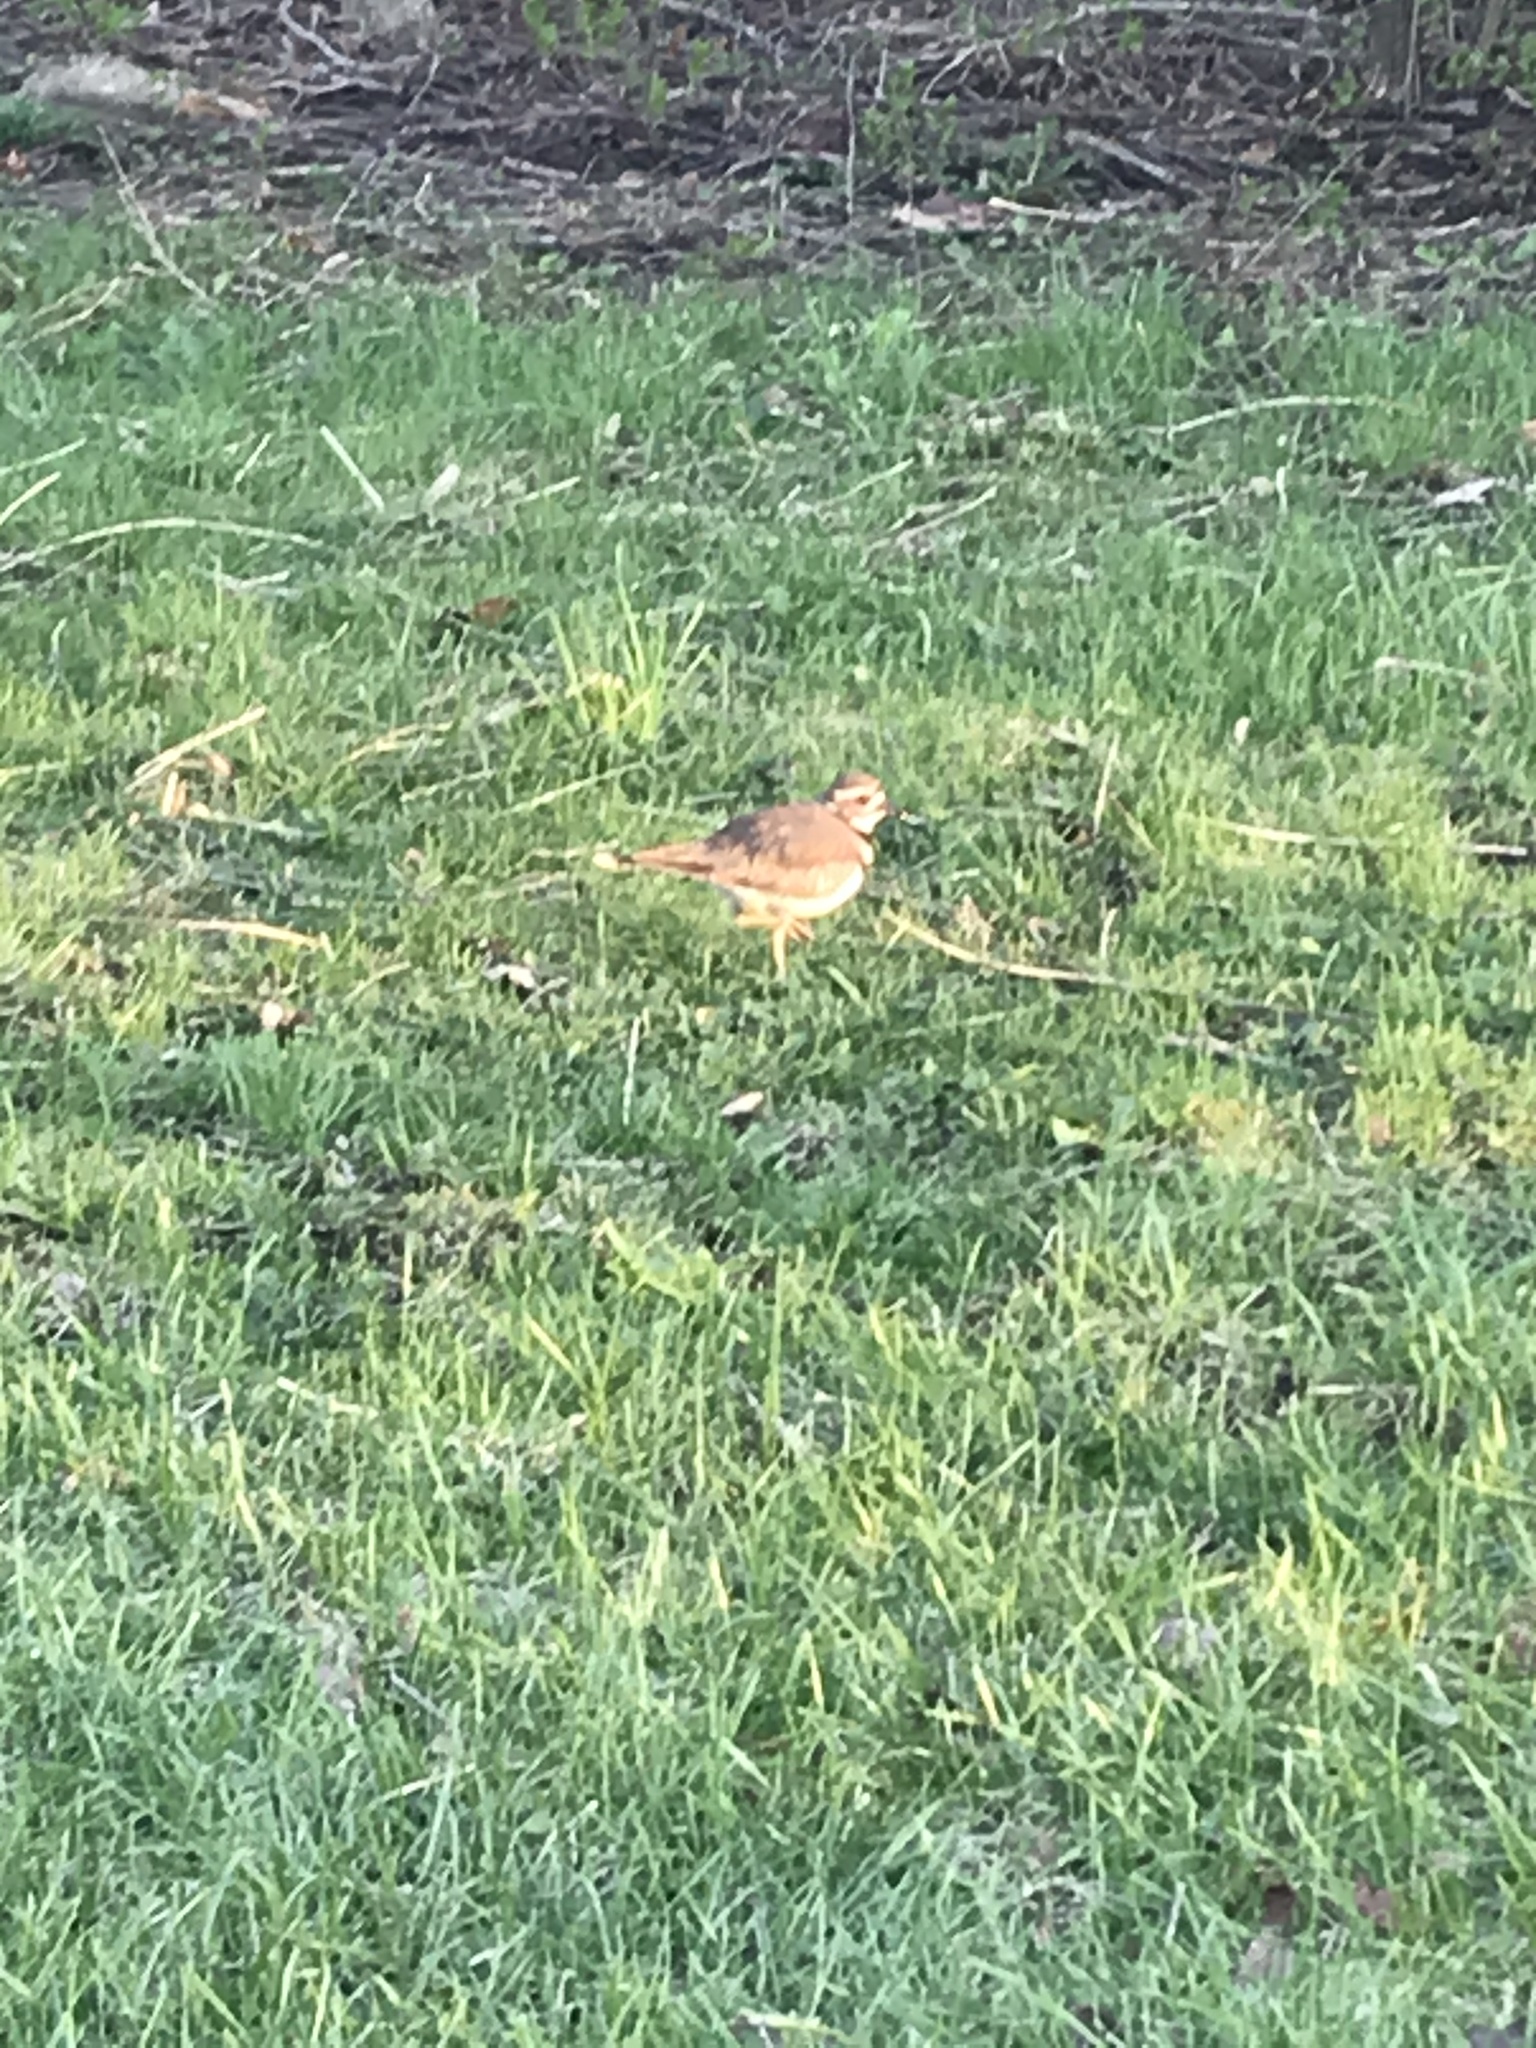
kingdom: Animalia
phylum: Chordata
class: Aves
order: Charadriiformes
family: Charadriidae
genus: Charadrius
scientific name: Charadrius vociferus
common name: Killdeer
